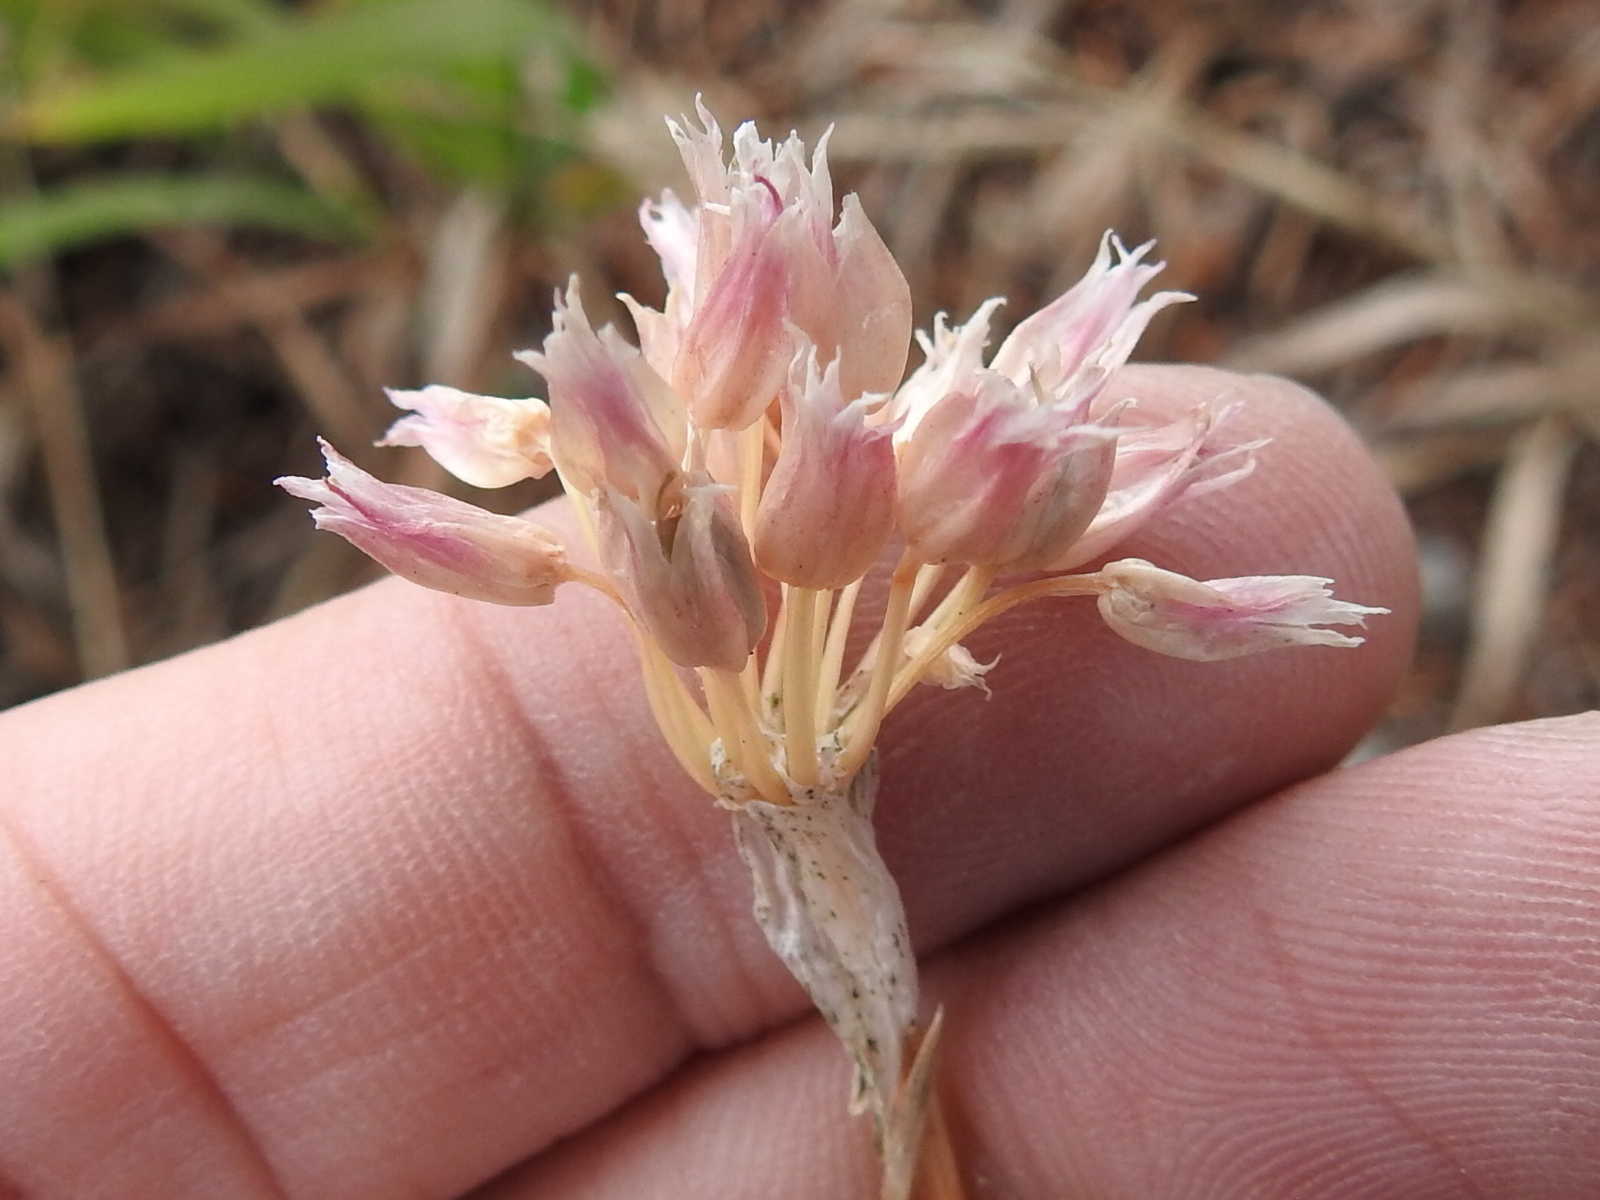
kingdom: Plantae
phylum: Tracheophyta
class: Liliopsida
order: Asparagales
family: Amaryllidaceae
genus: Allium
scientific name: Allium geyeri
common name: Geyer's onion
